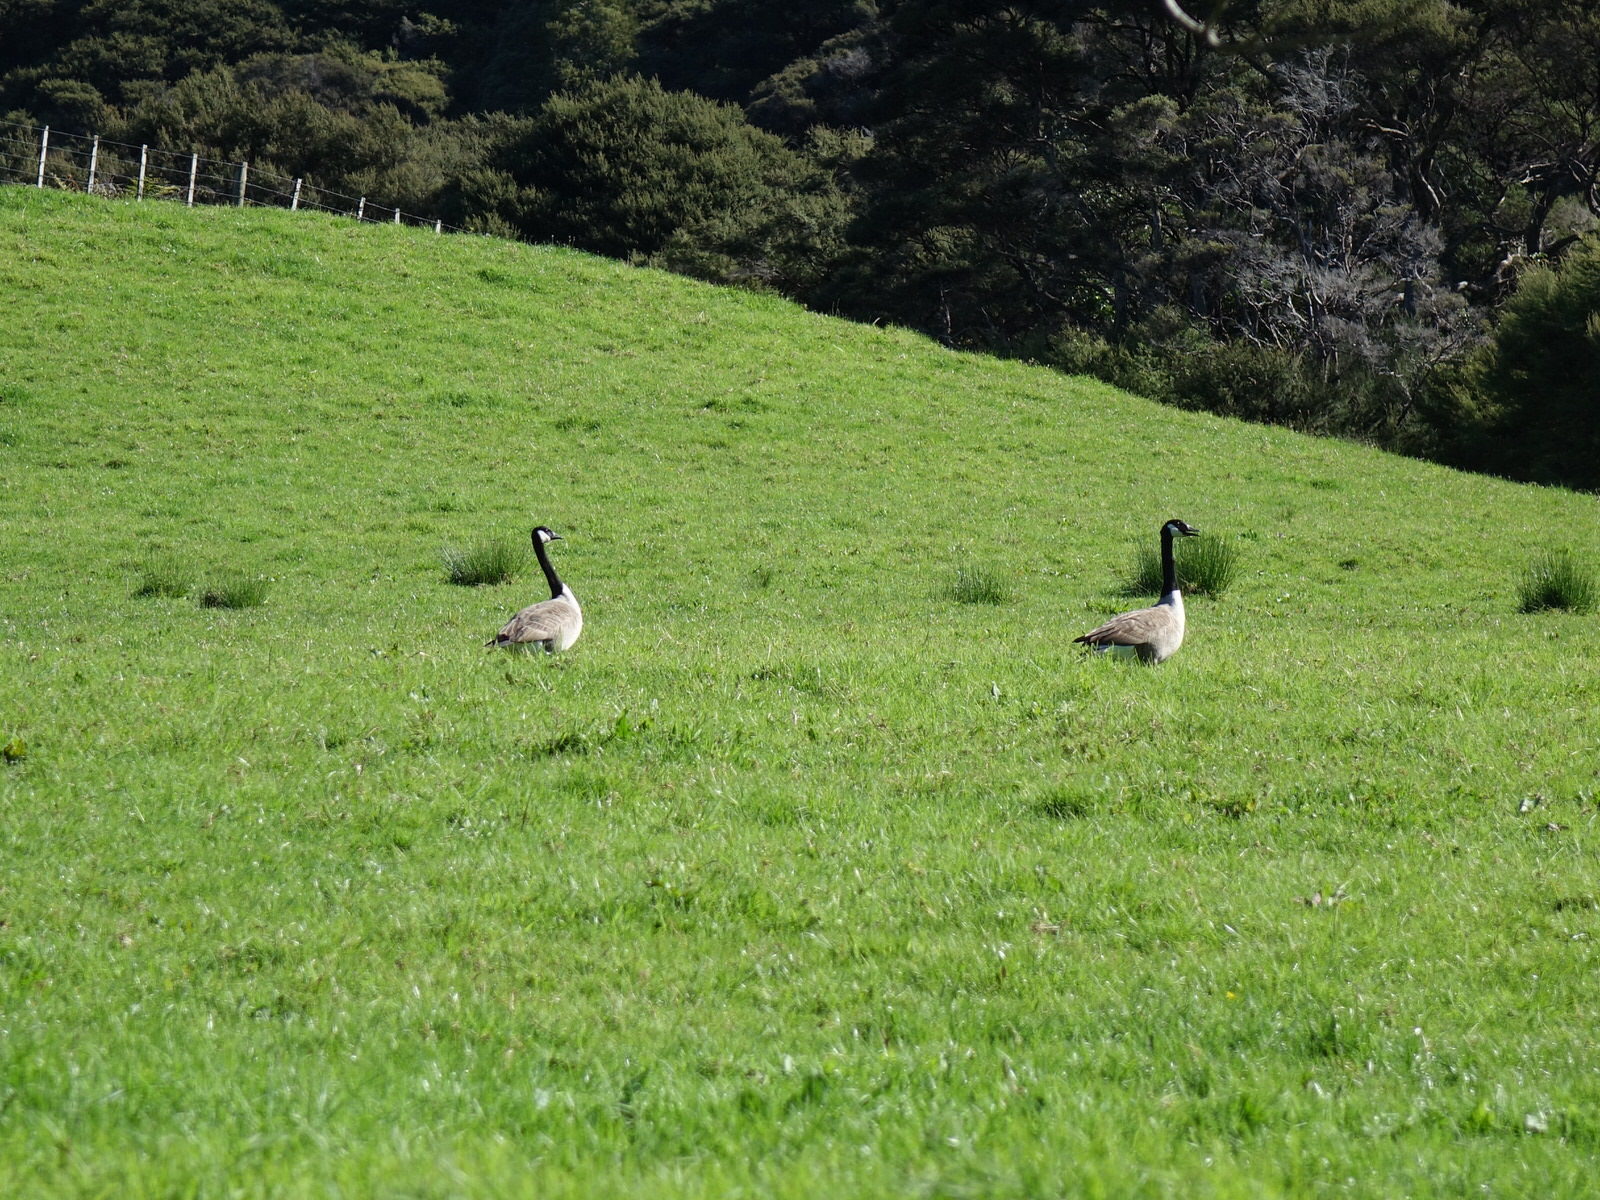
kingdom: Animalia
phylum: Chordata
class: Aves
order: Anseriformes
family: Anatidae
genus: Branta
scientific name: Branta canadensis
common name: Canada goose
